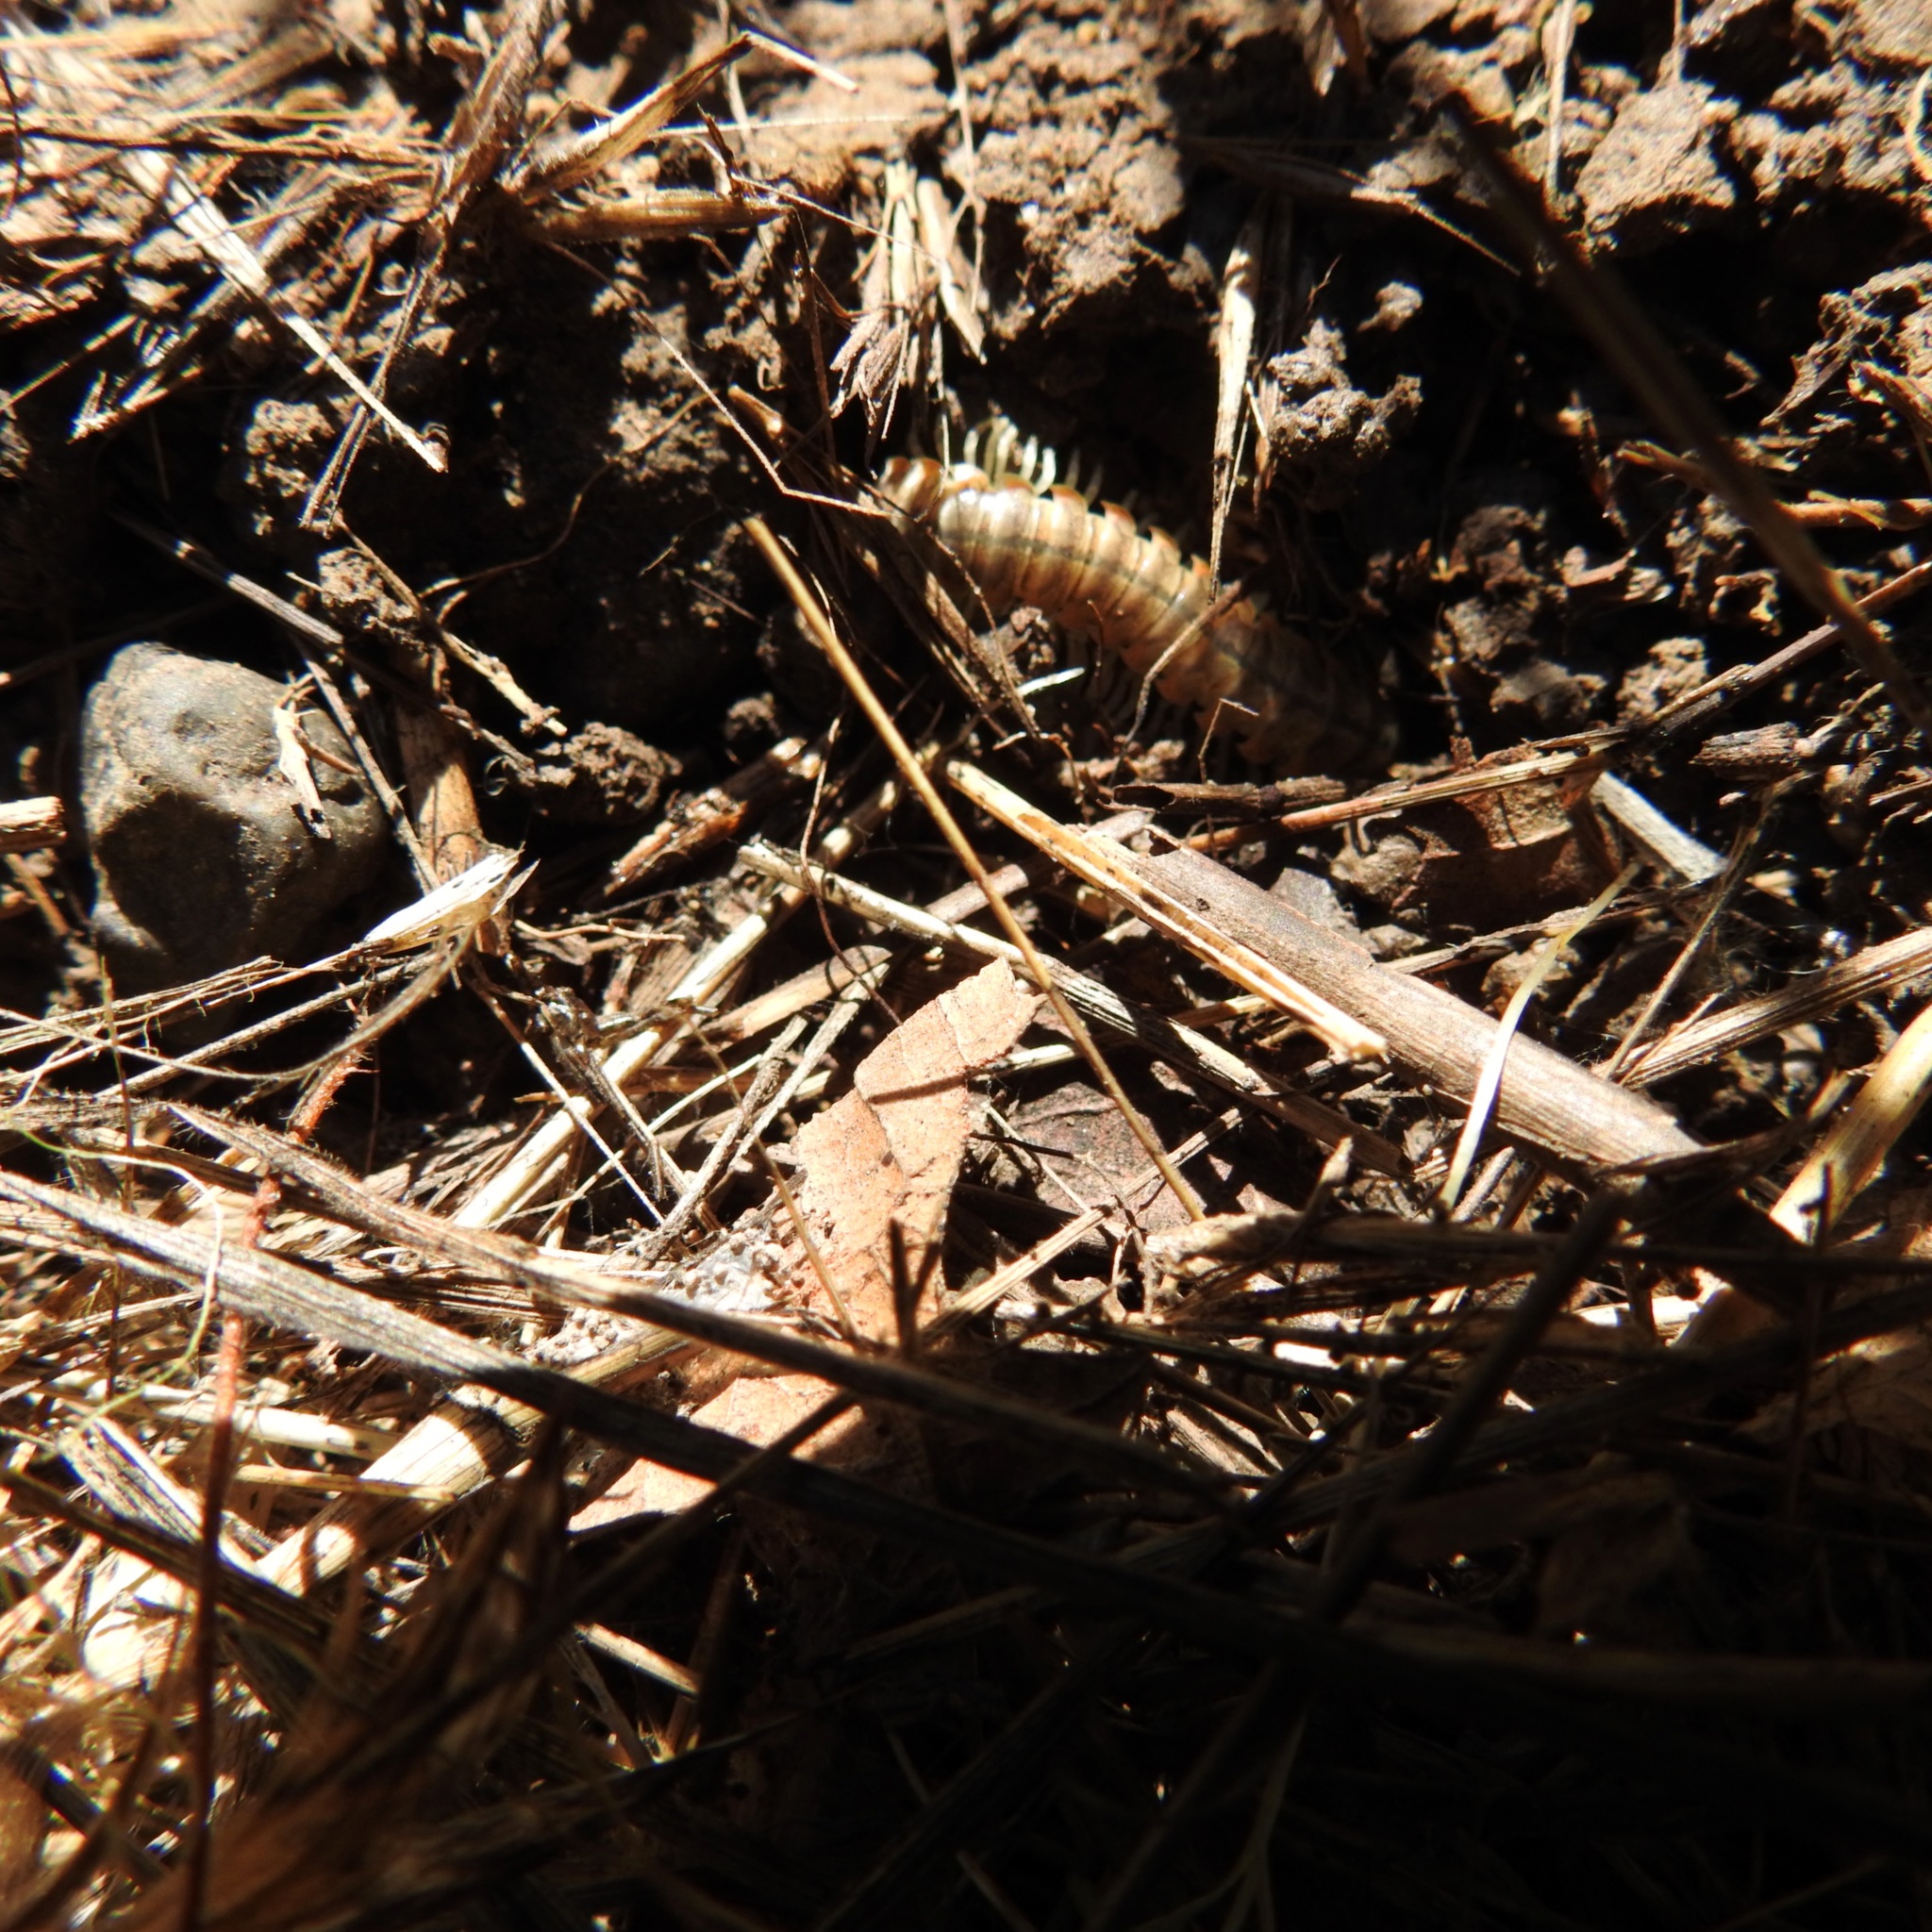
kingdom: Animalia
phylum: Arthropoda
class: Diplopoda
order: Polydesmida
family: Xystodesmidae
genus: Xystocheir
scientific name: Xystocheir dissecta
